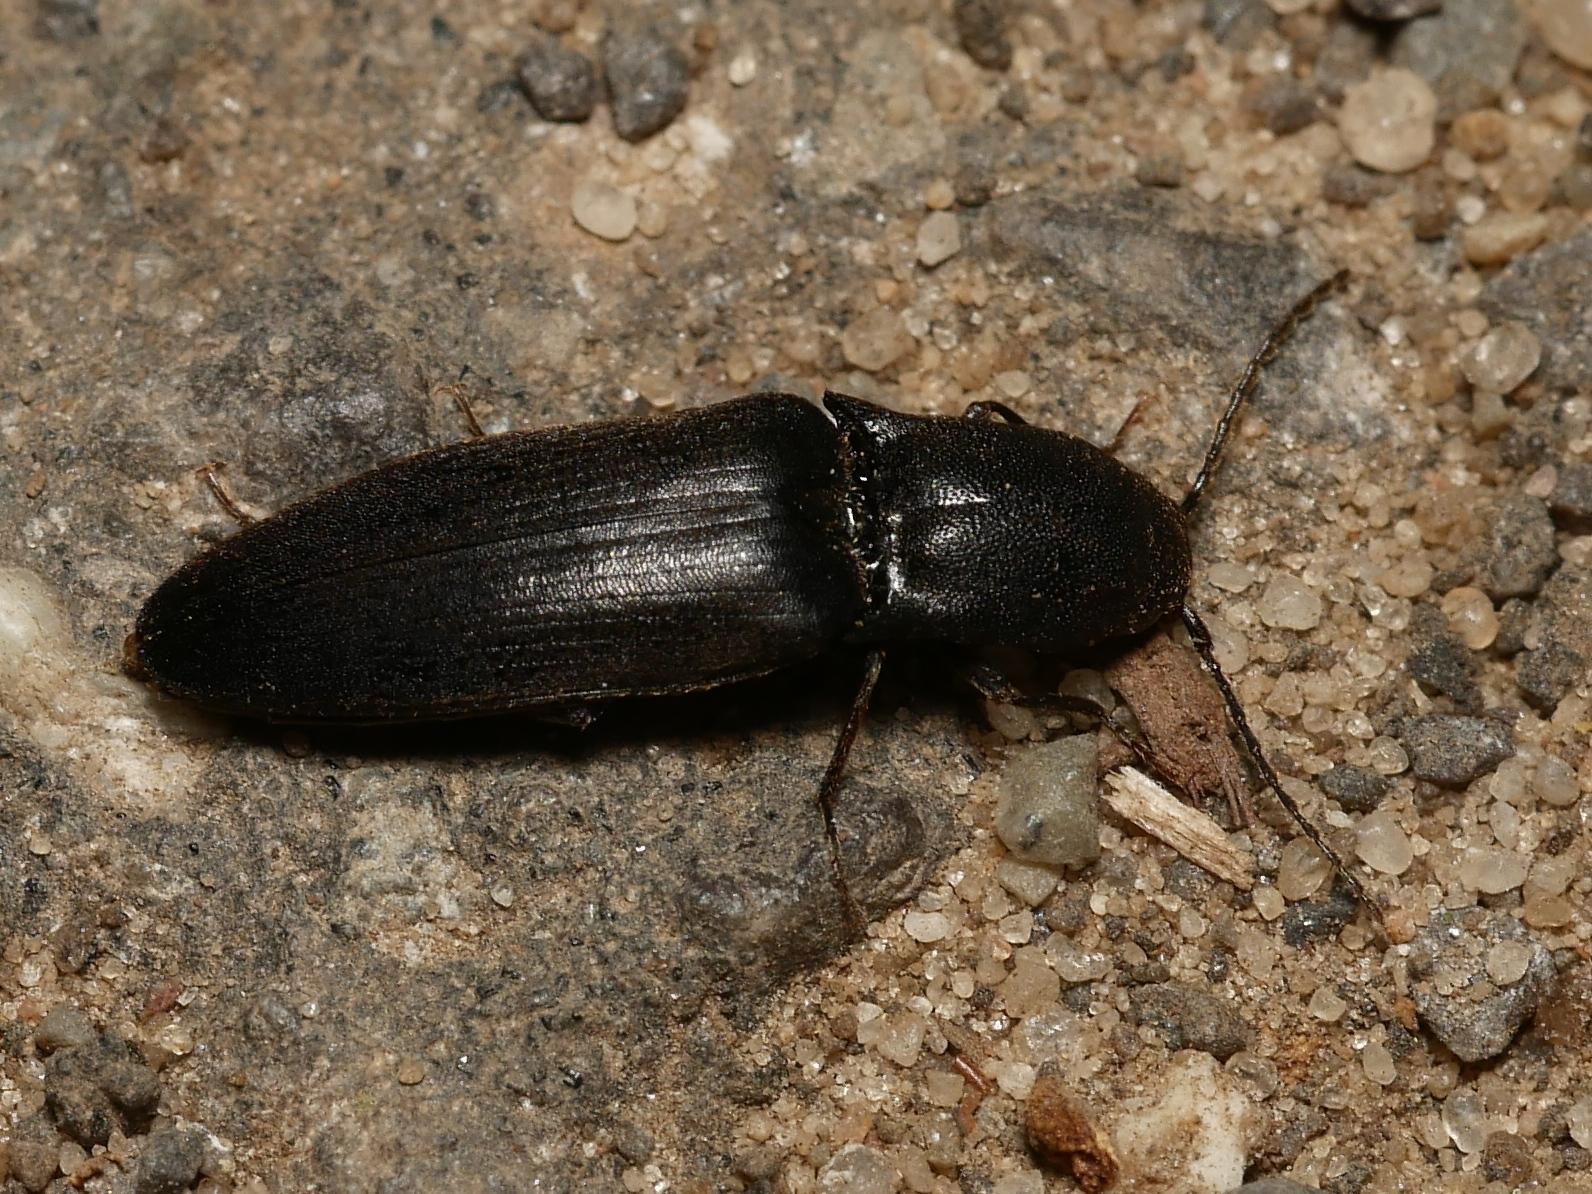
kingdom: Animalia
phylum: Arthropoda
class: Insecta
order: Coleoptera
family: Elateridae
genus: Ectinus
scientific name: Ectinus aterrimus
